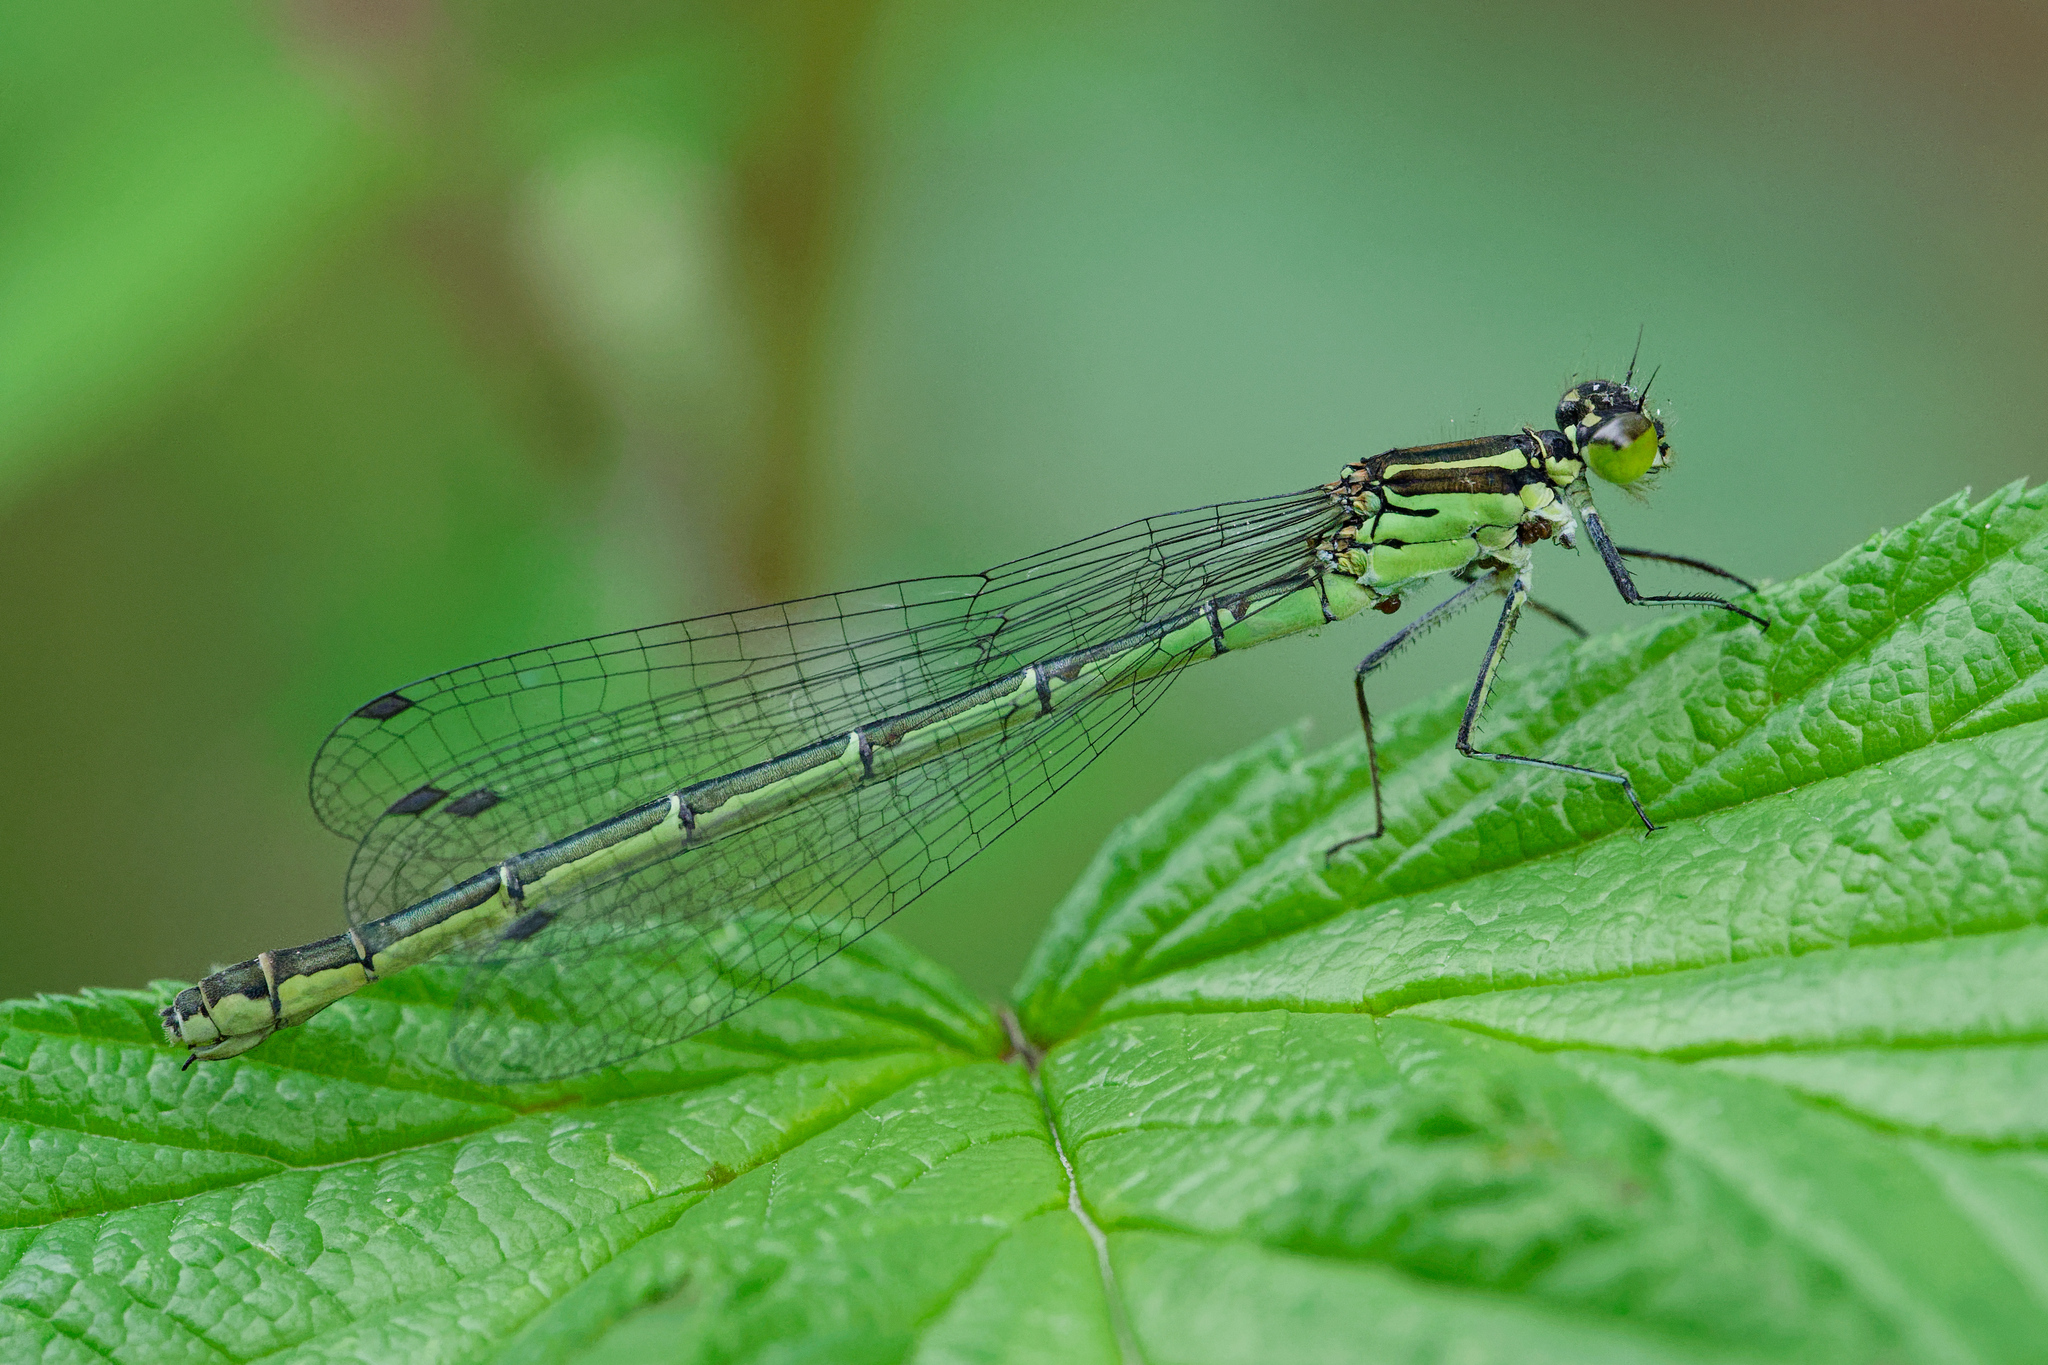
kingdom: Animalia
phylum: Arthropoda
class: Insecta
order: Odonata
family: Coenagrionidae
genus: Coenagrion
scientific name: Coenagrion hastulatum
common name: Spearhead bluet
